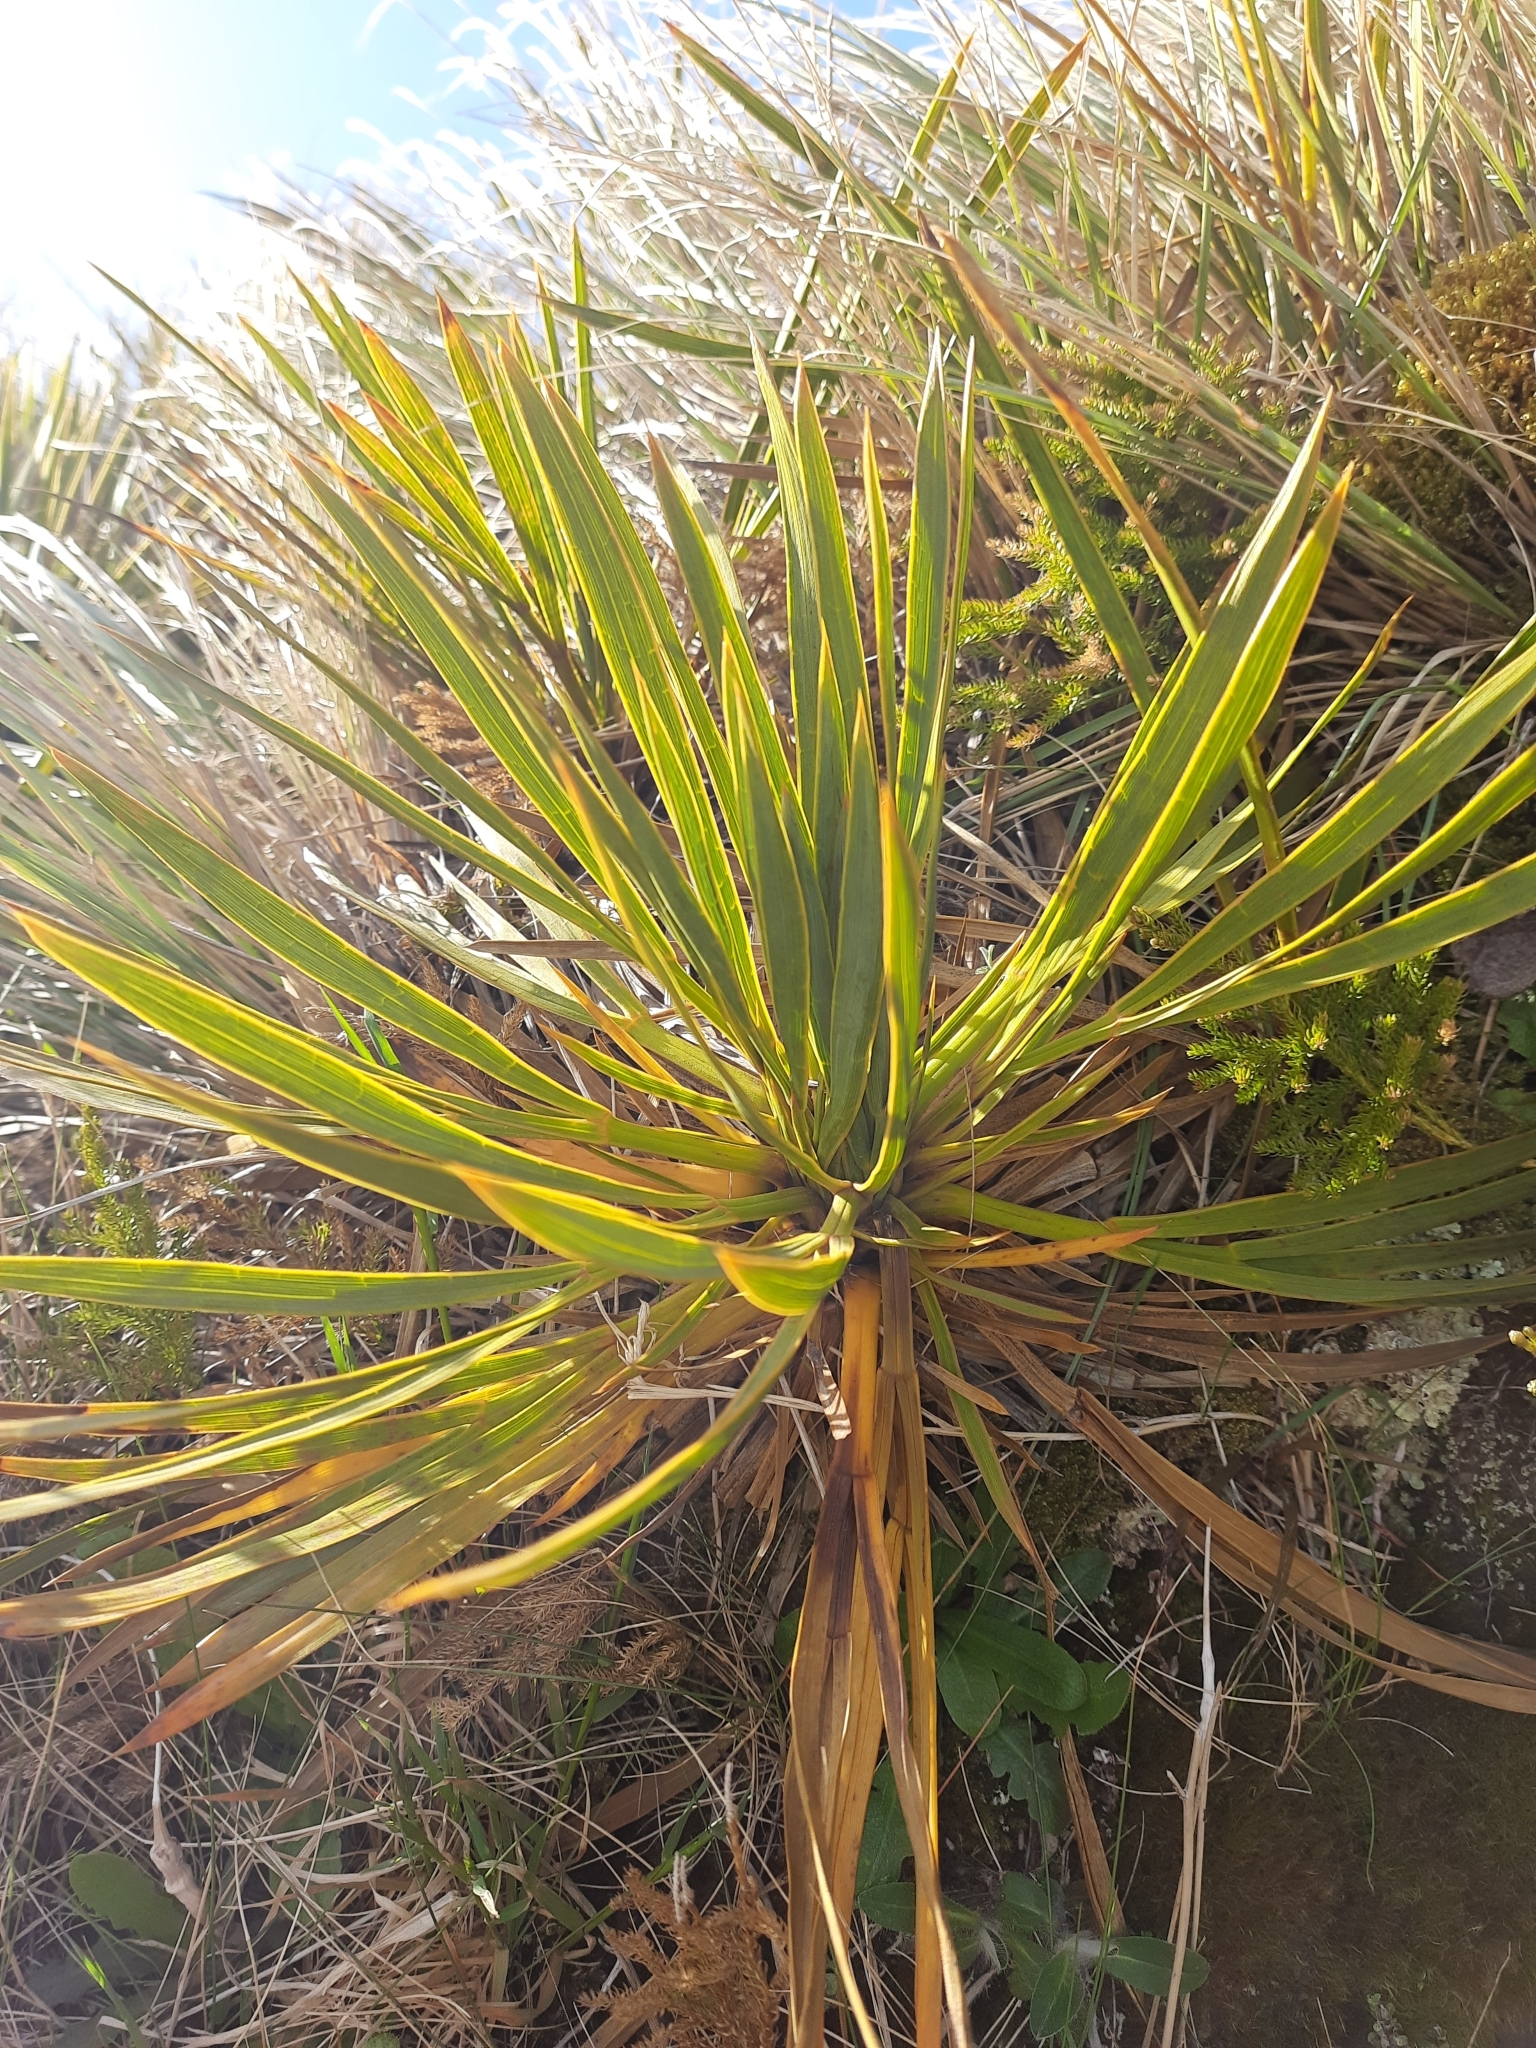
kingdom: Plantae
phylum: Tracheophyta
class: Magnoliopsida
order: Apiales
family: Apiaceae
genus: Aciphylla
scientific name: Aciphylla aurea
